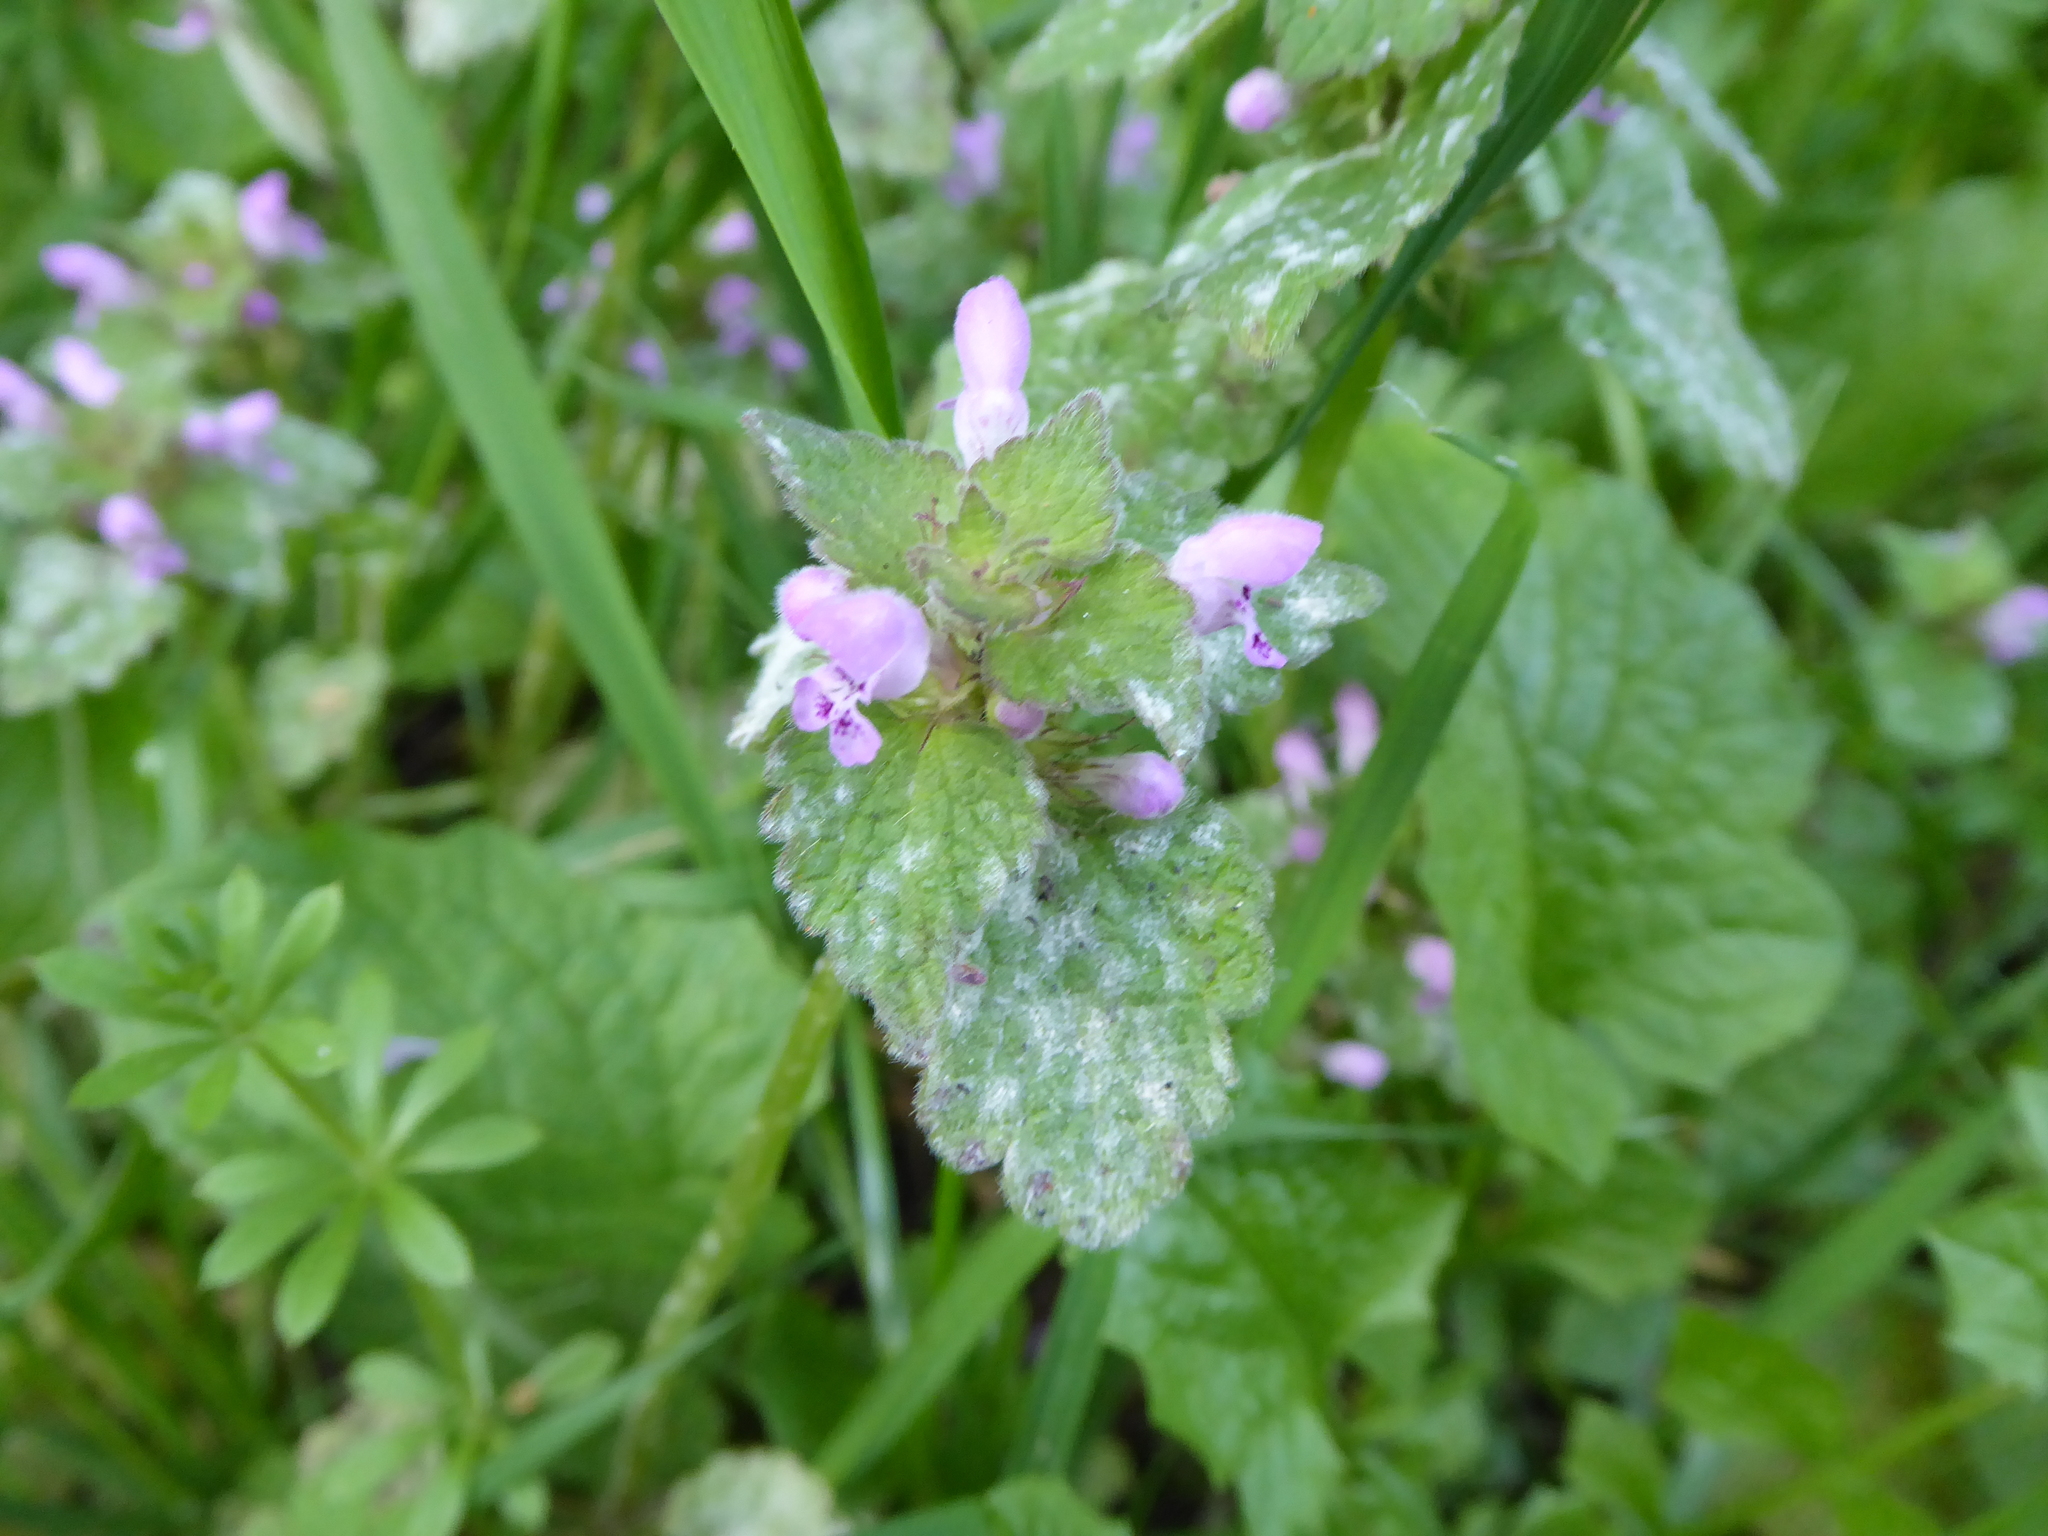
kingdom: Plantae
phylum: Tracheophyta
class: Magnoliopsida
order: Lamiales
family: Lamiaceae
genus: Lamium
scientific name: Lamium purpureum
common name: Red dead-nettle
